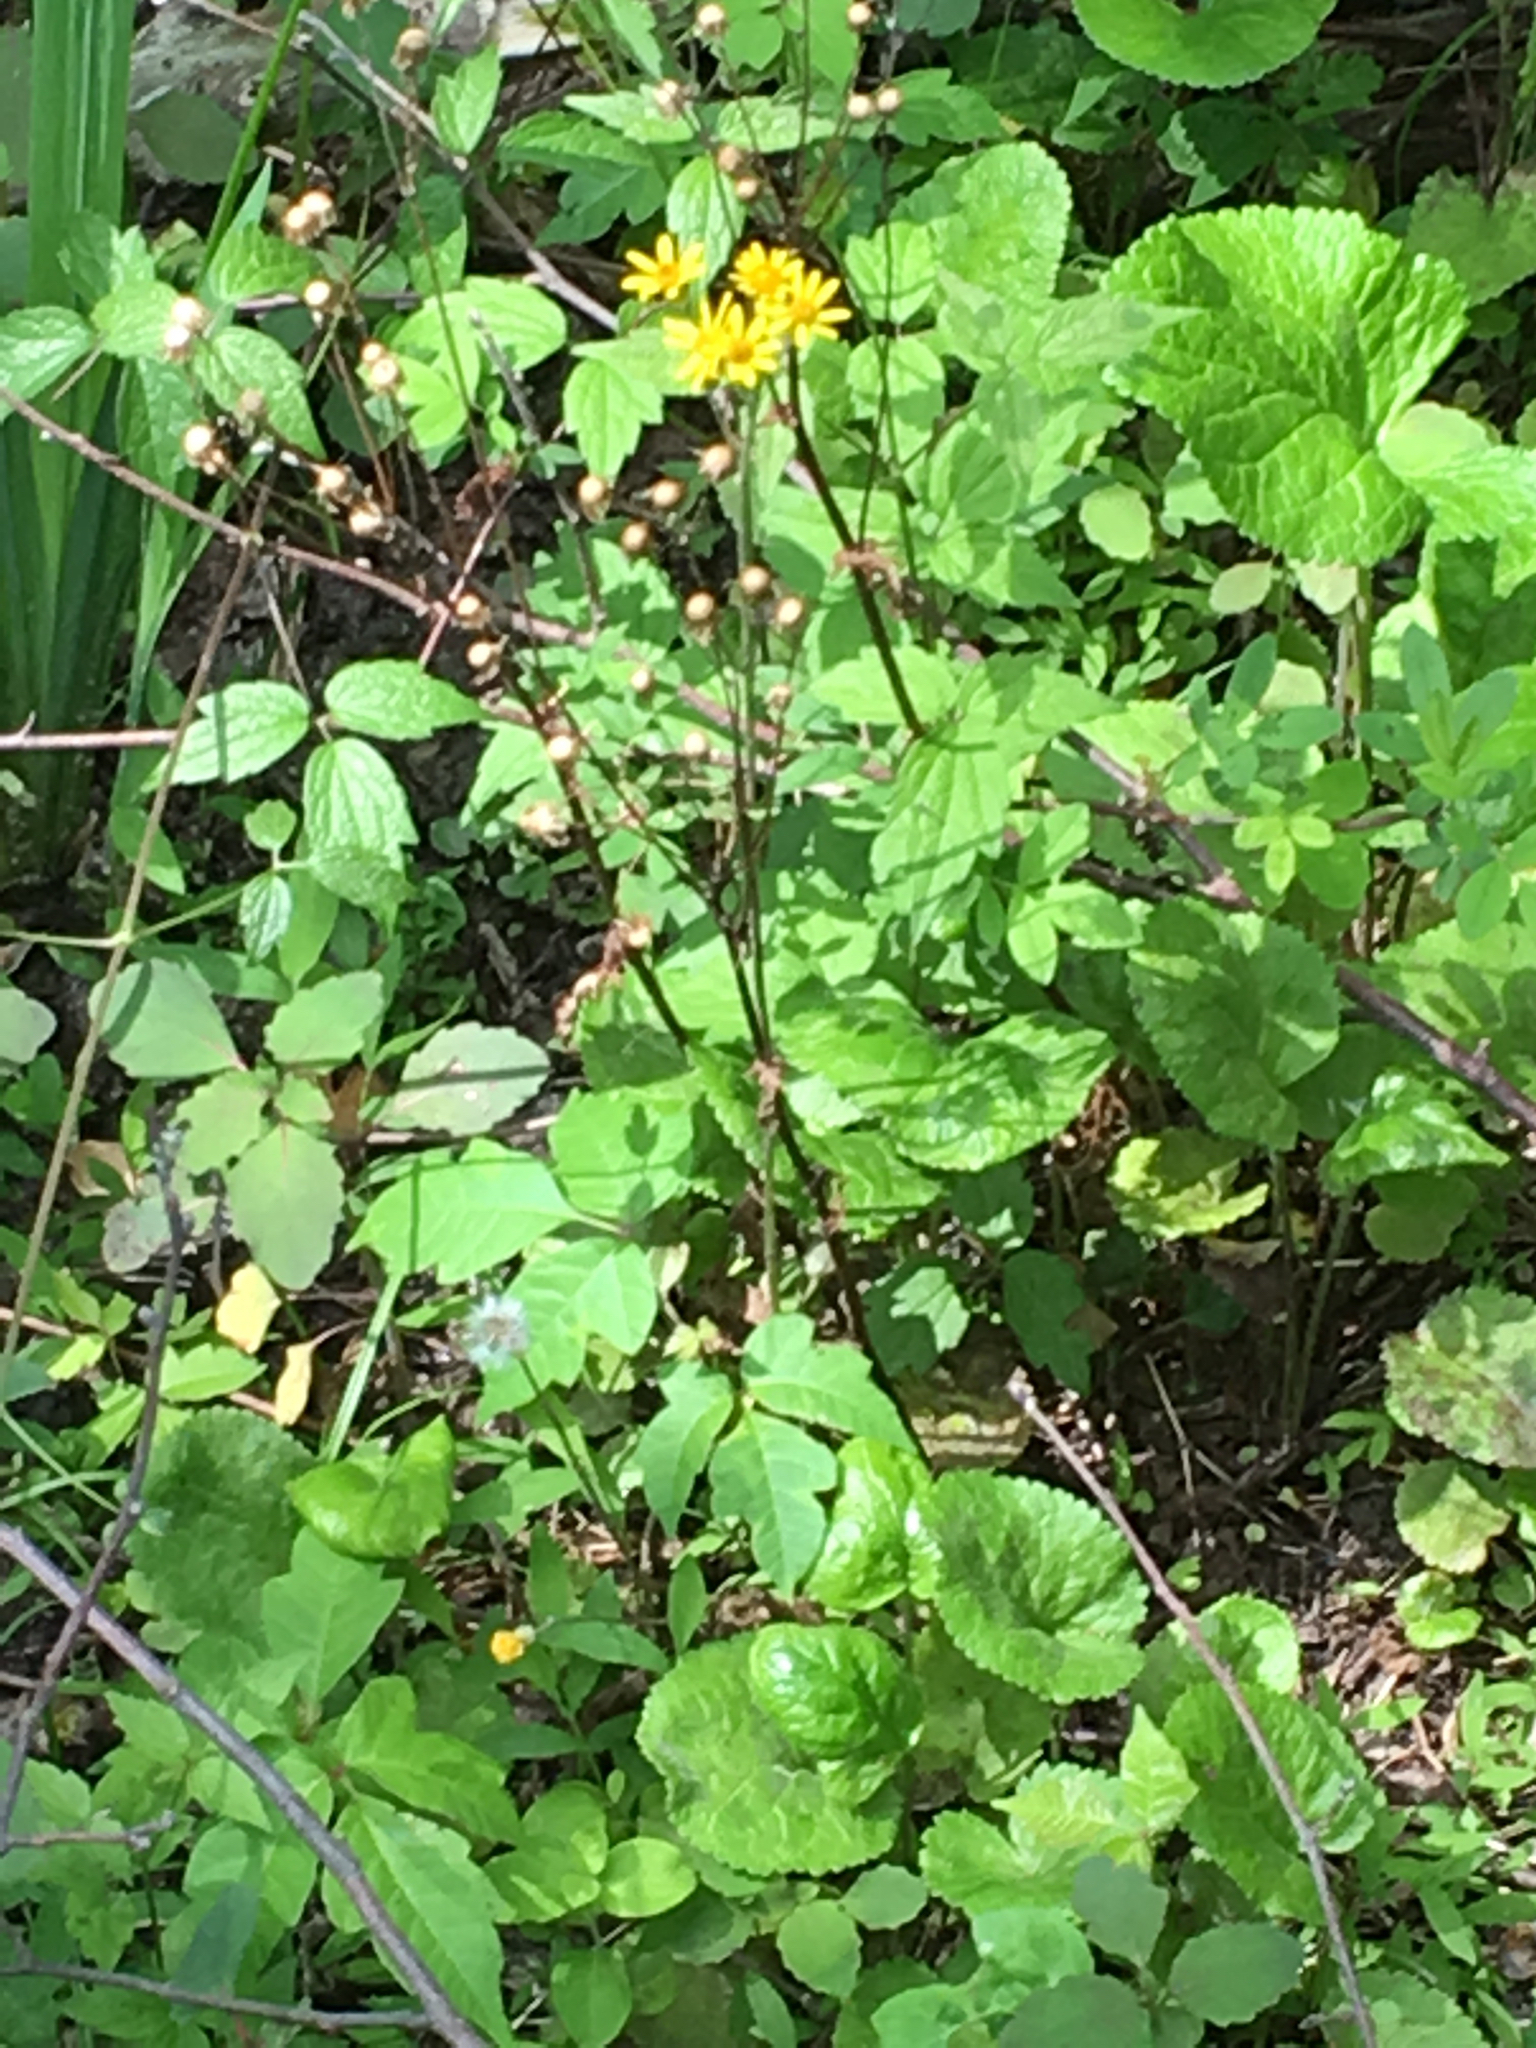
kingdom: Plantae
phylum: Tracheophyta
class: Magnoliopsida
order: Asterales
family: Asteraceae
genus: Packera
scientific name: Packera aurea
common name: Golden groundsel
